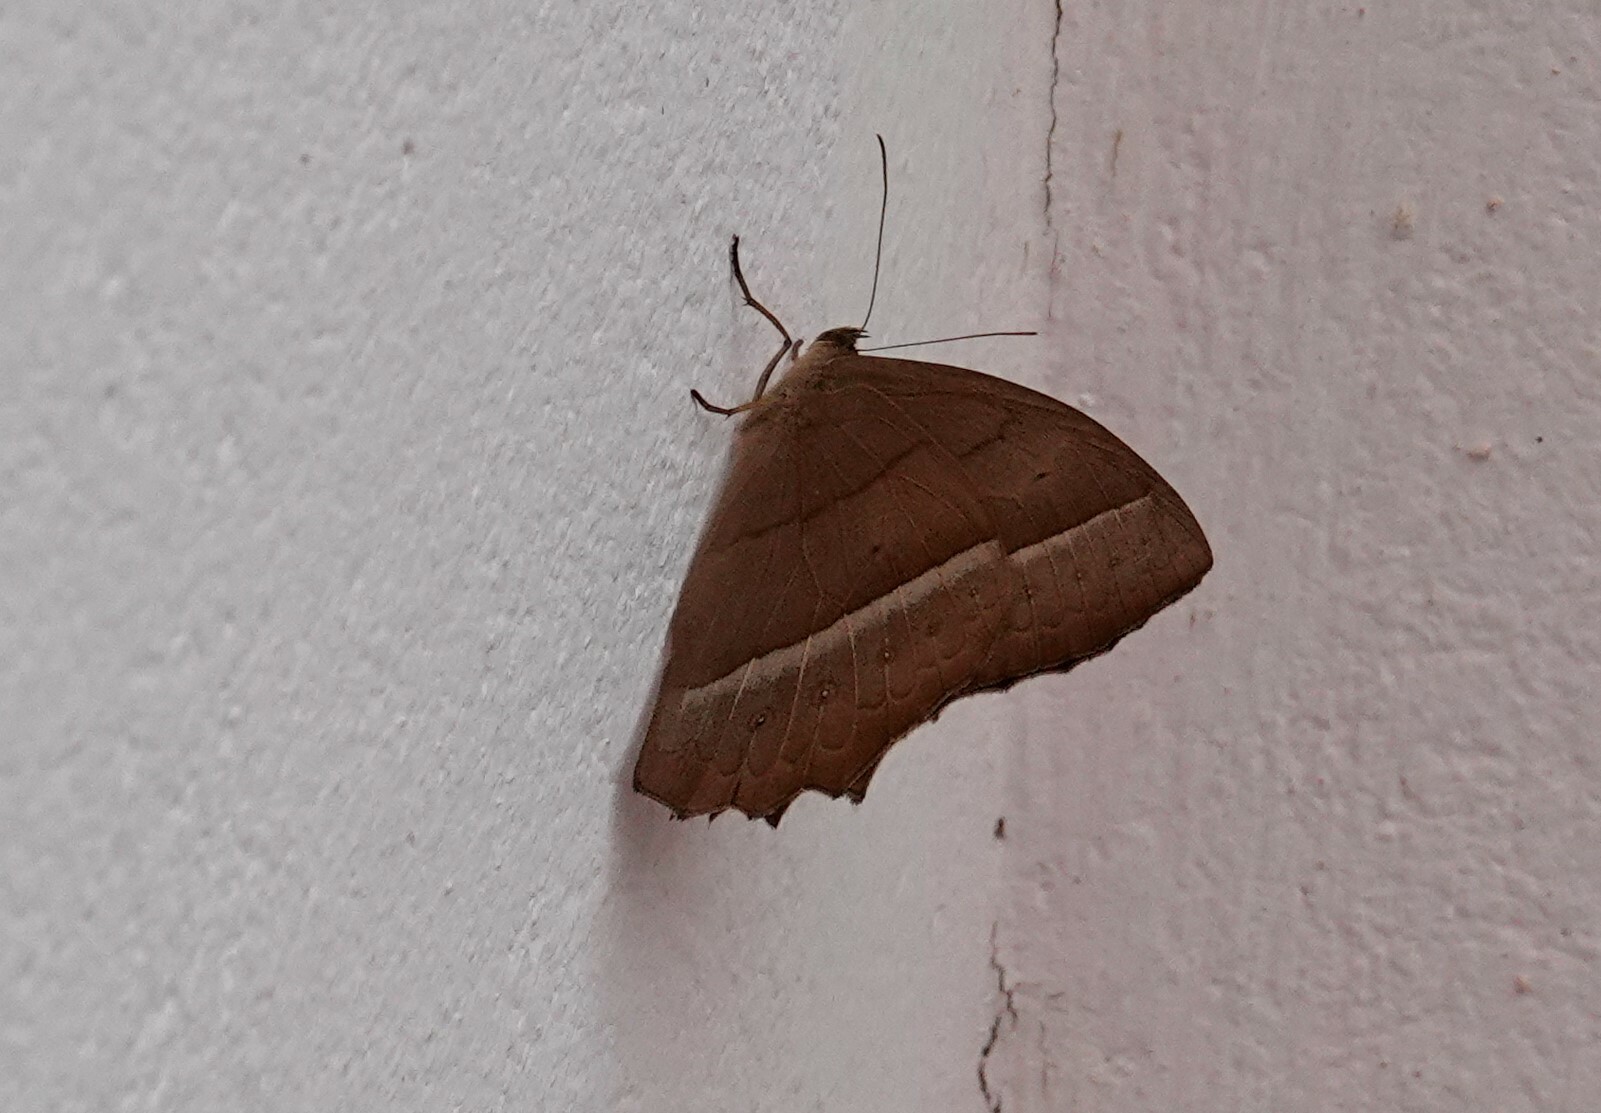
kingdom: Animalia
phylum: Arthropoda
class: Insecta
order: Lepidoptera
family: Nymphalidae
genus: Taygetis
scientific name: Taygetis virgilia
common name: Stub-tailed satyr
